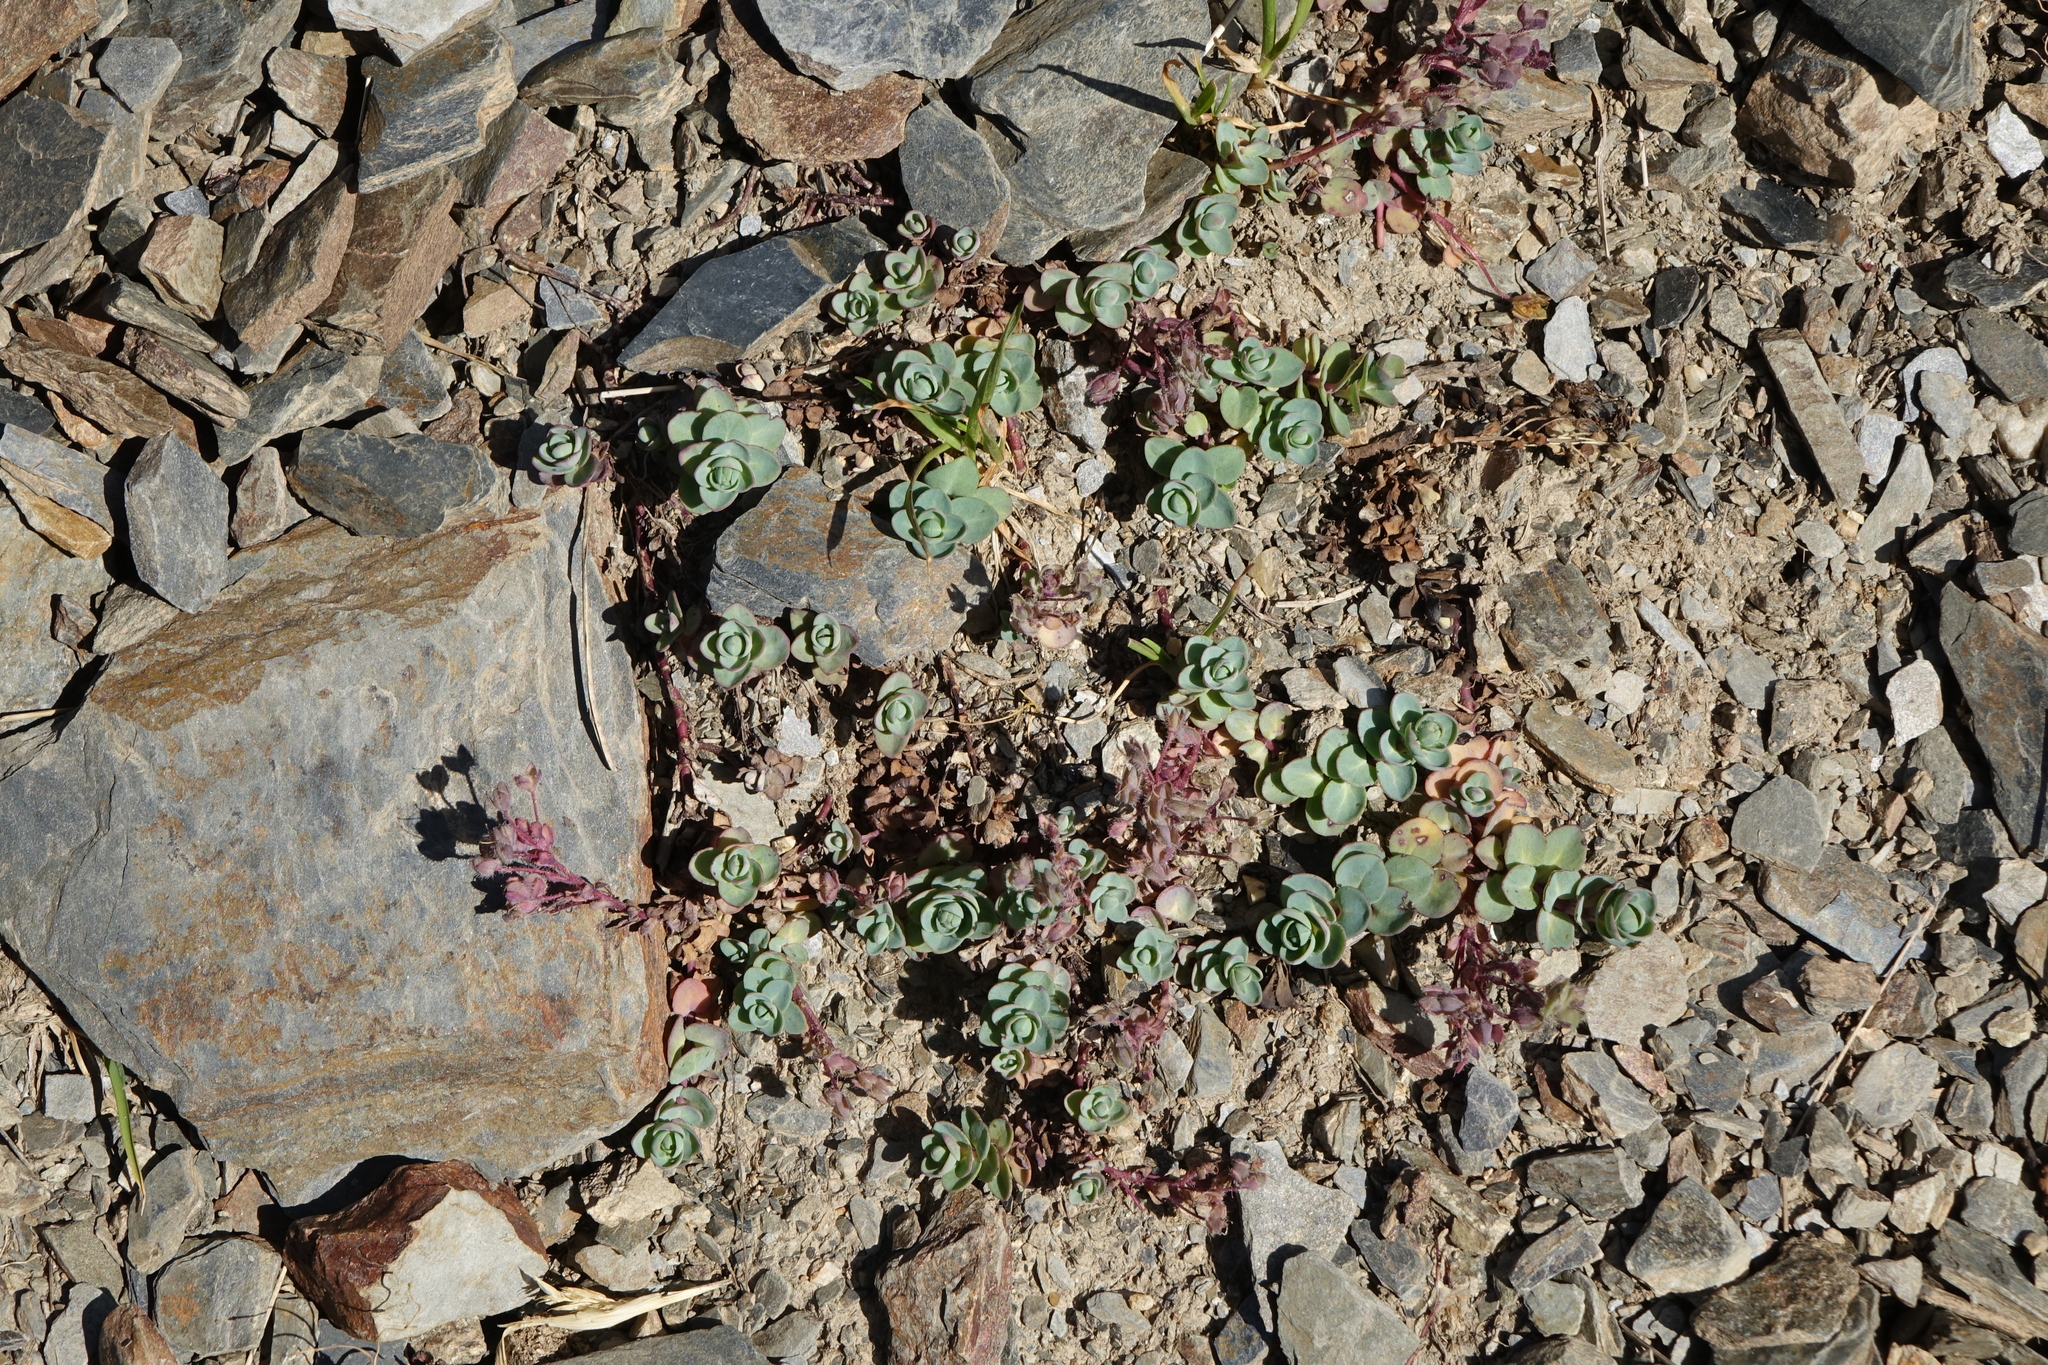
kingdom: Plantae
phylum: Tracheophyta
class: Magnoliopsida
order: Lamiales
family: Plantaginaceae
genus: Veronica
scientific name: Veronica telephiifolia
